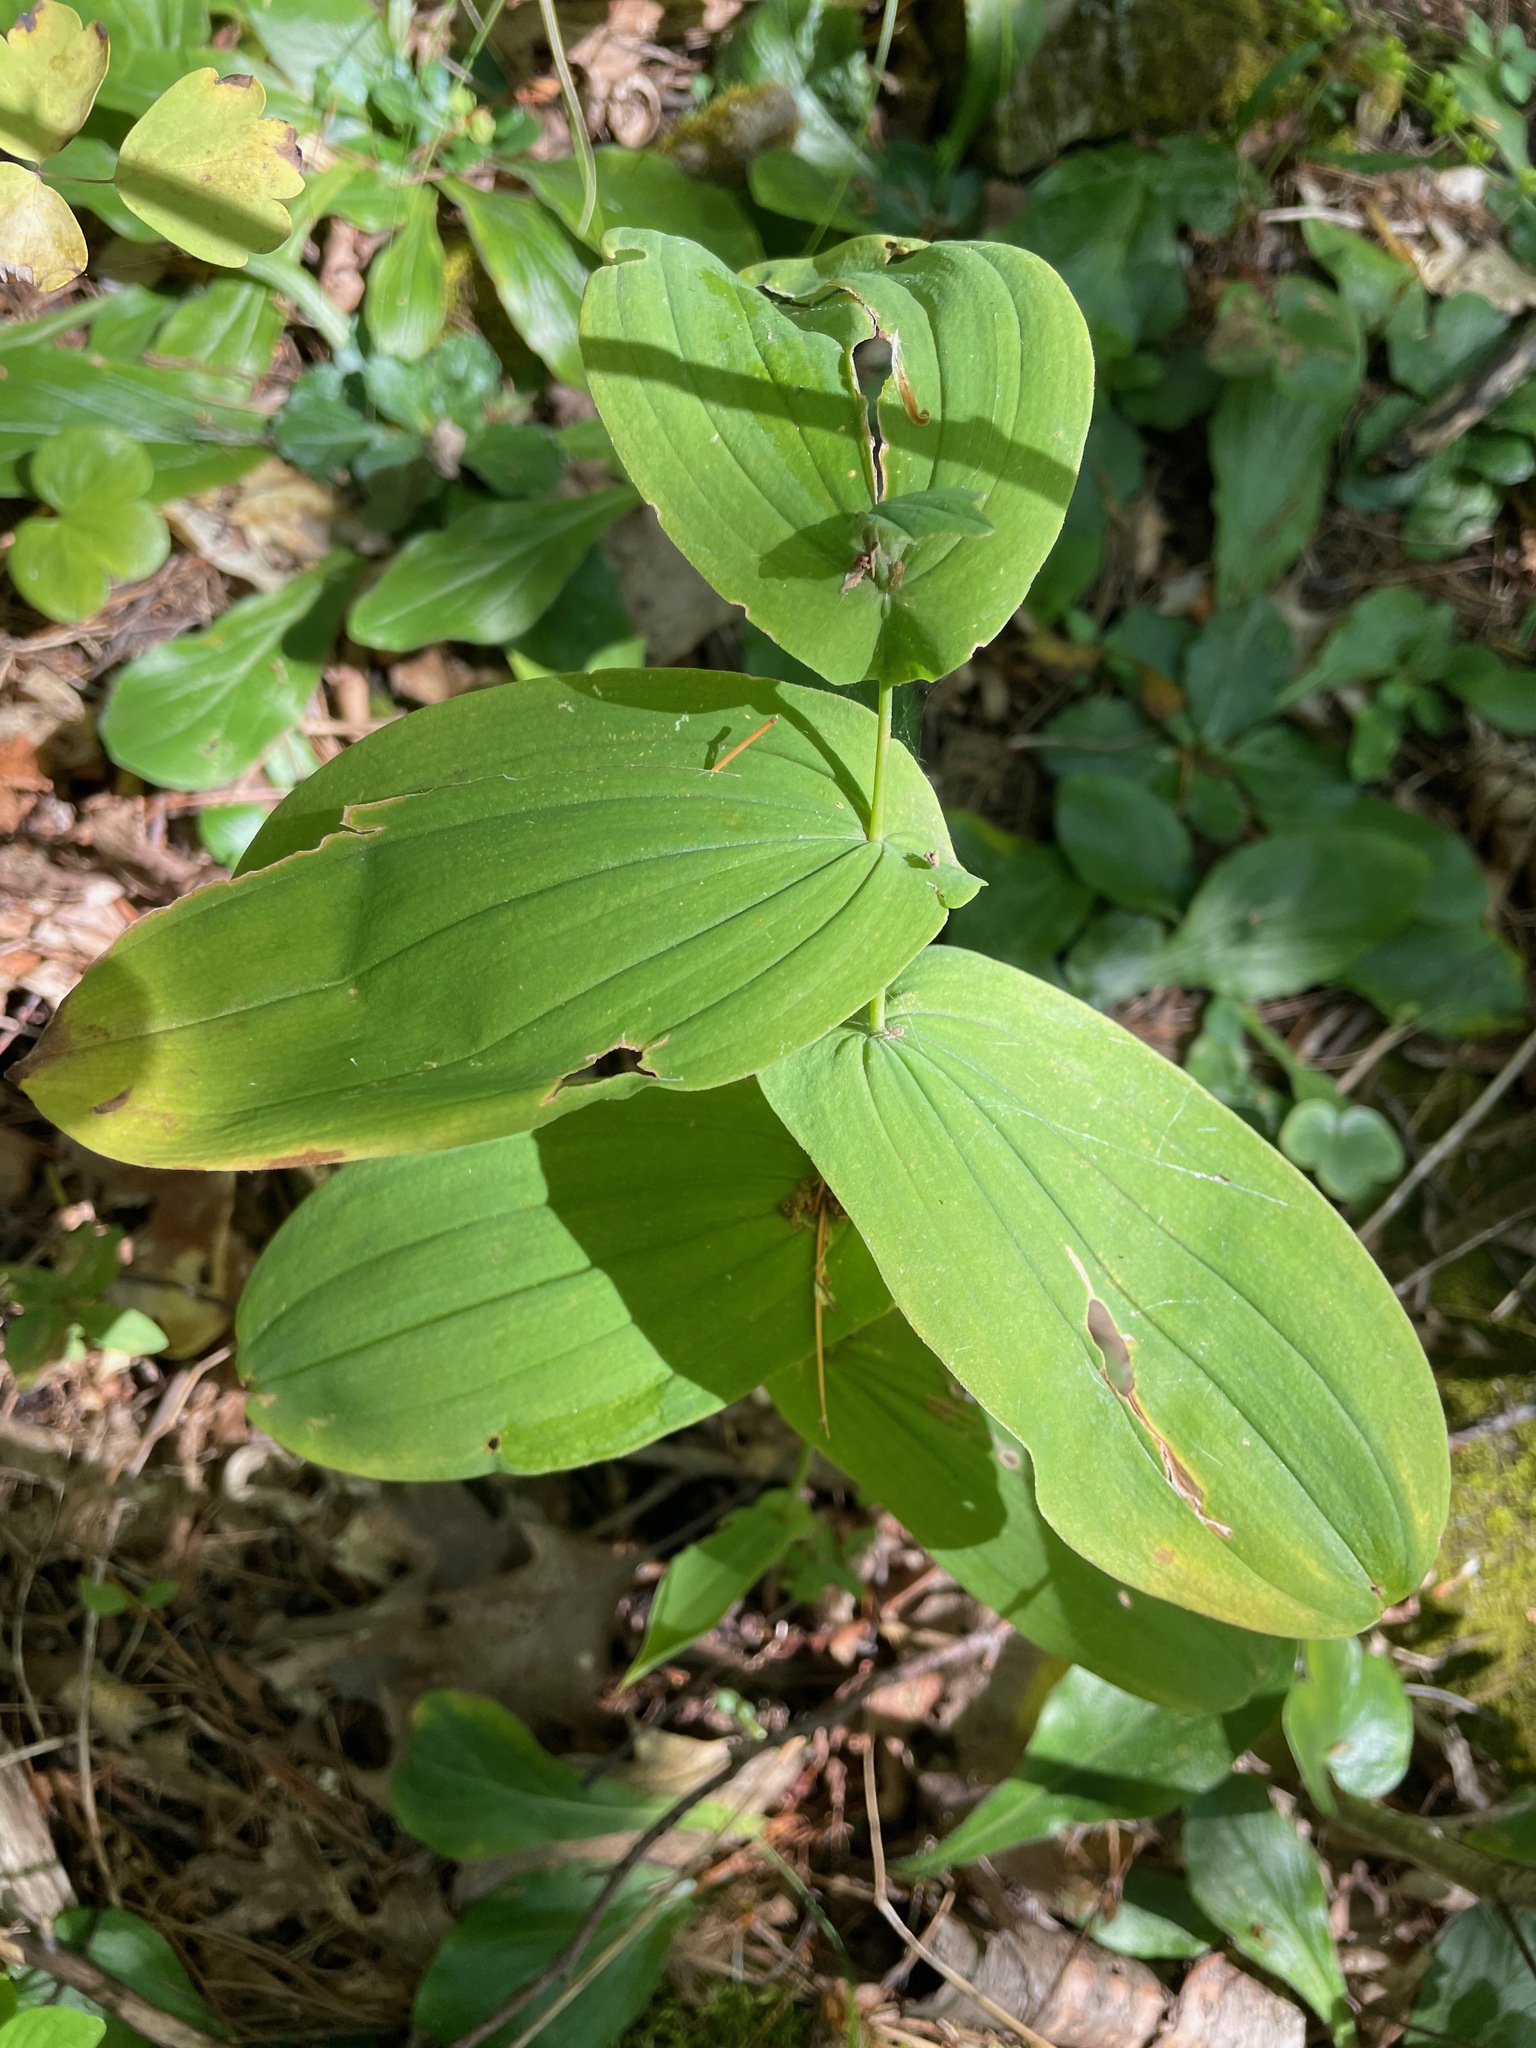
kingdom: Plantae
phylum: Tracheophyta
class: Liliopsida
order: Liliales
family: Colchicaceae
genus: Uvularia
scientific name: Uvularia grandiflora
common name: Bellwort
